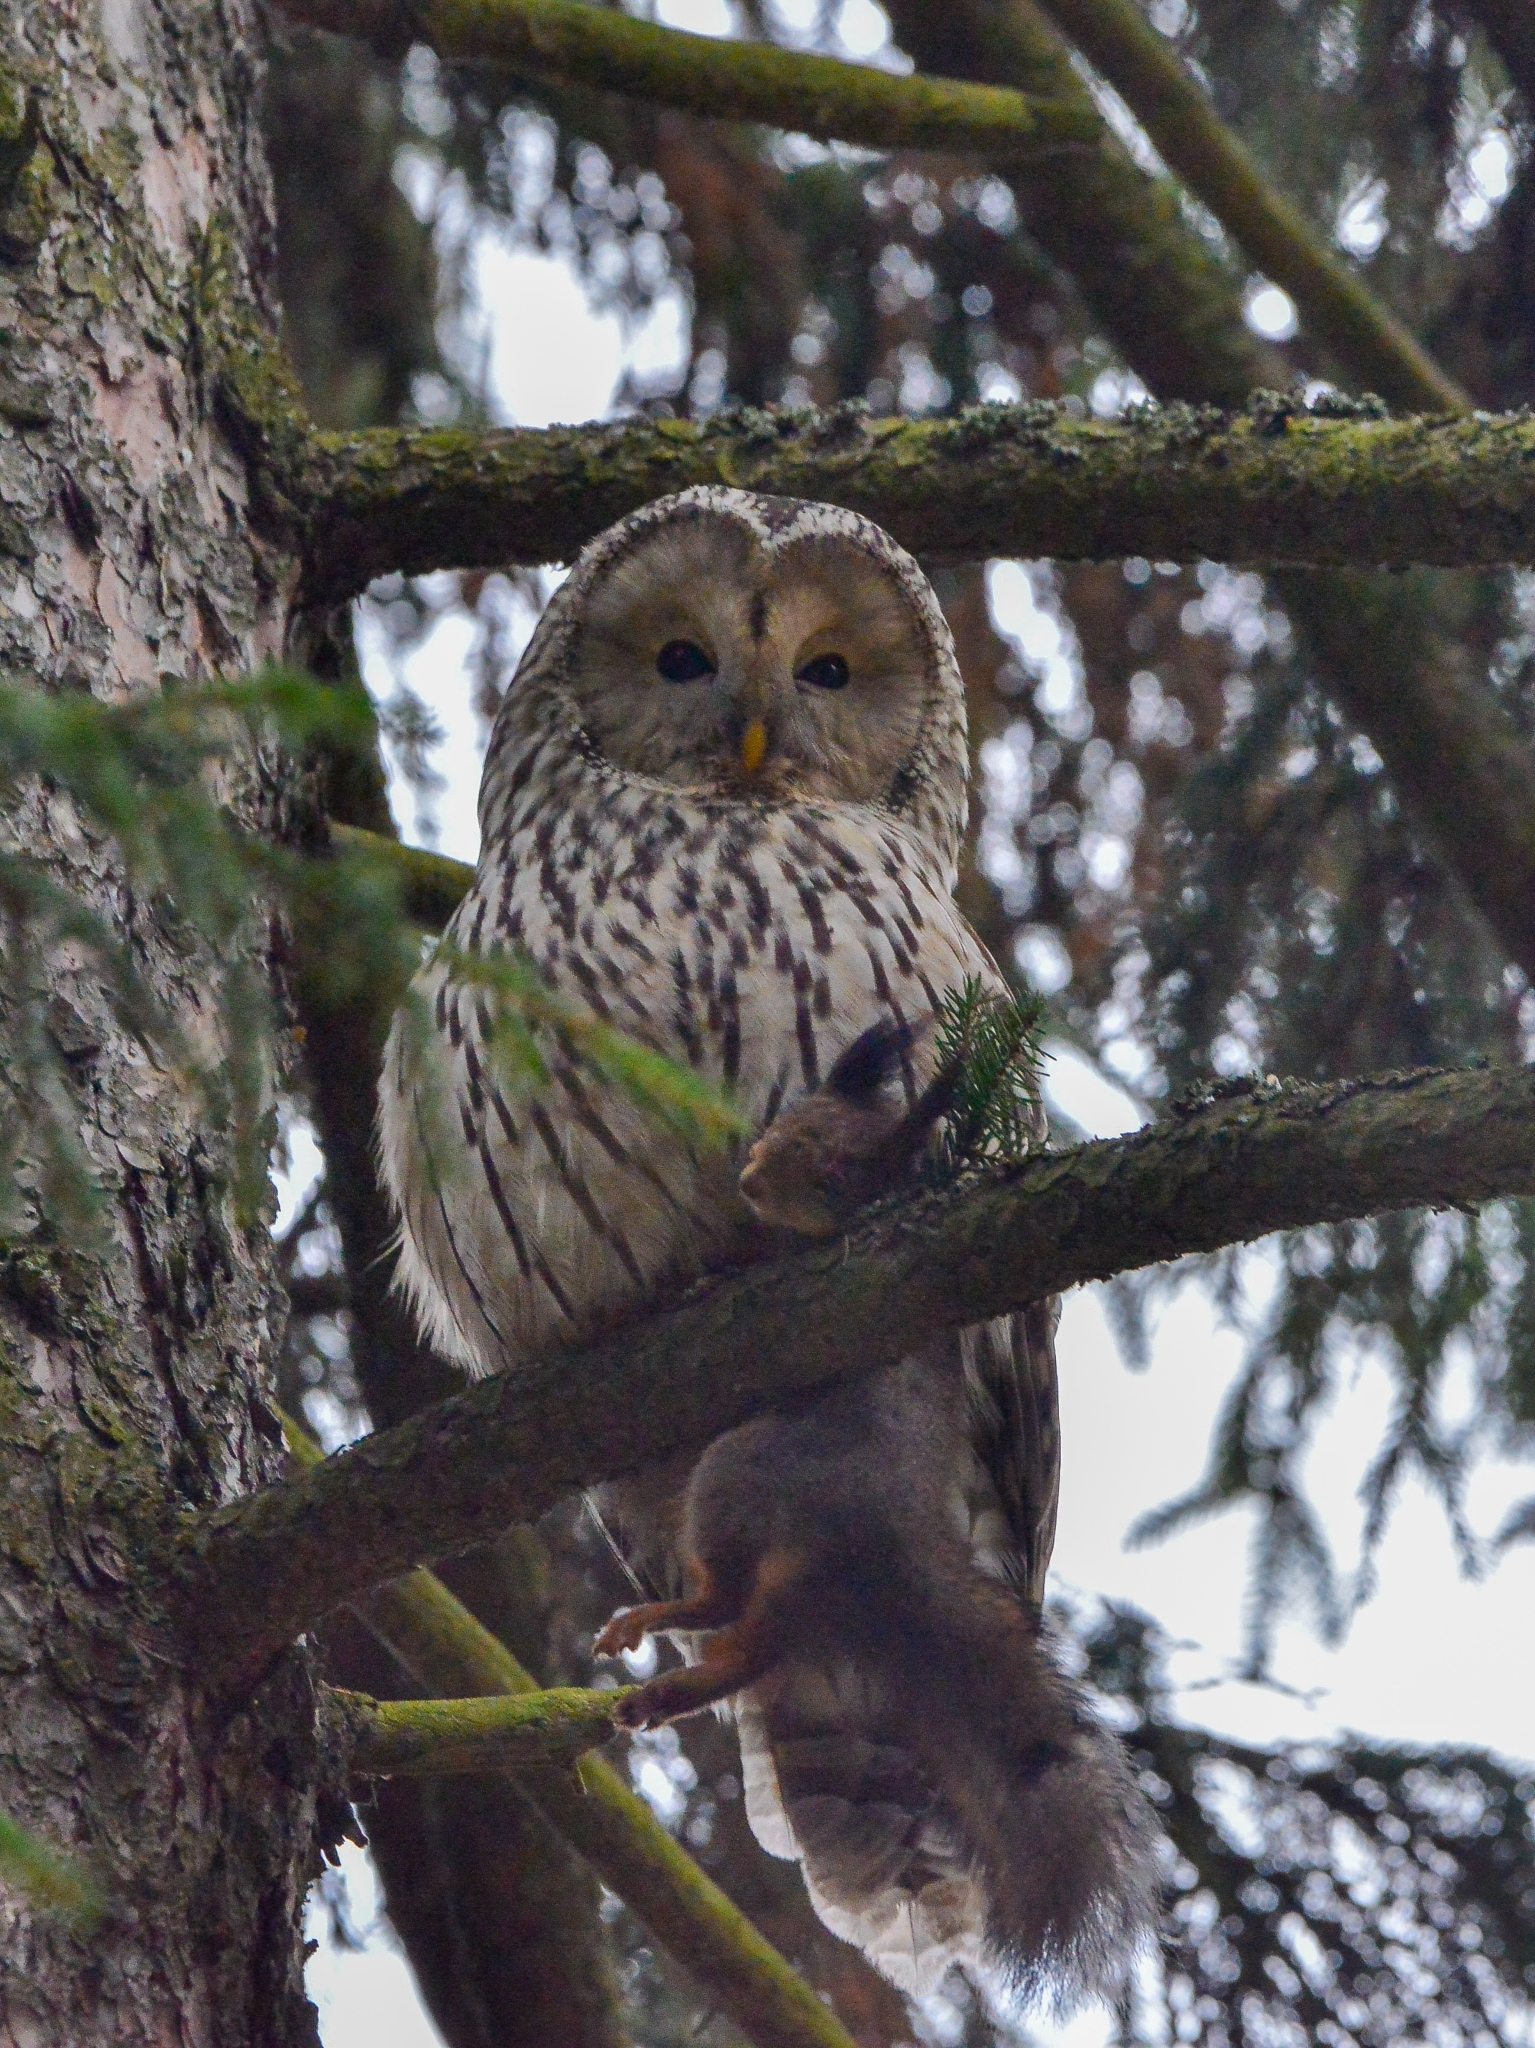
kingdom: Animalia
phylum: Chordata
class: Aves
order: Strigiformes
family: Strigidae
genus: Strix
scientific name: Strix uralensis
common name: Ural owl
